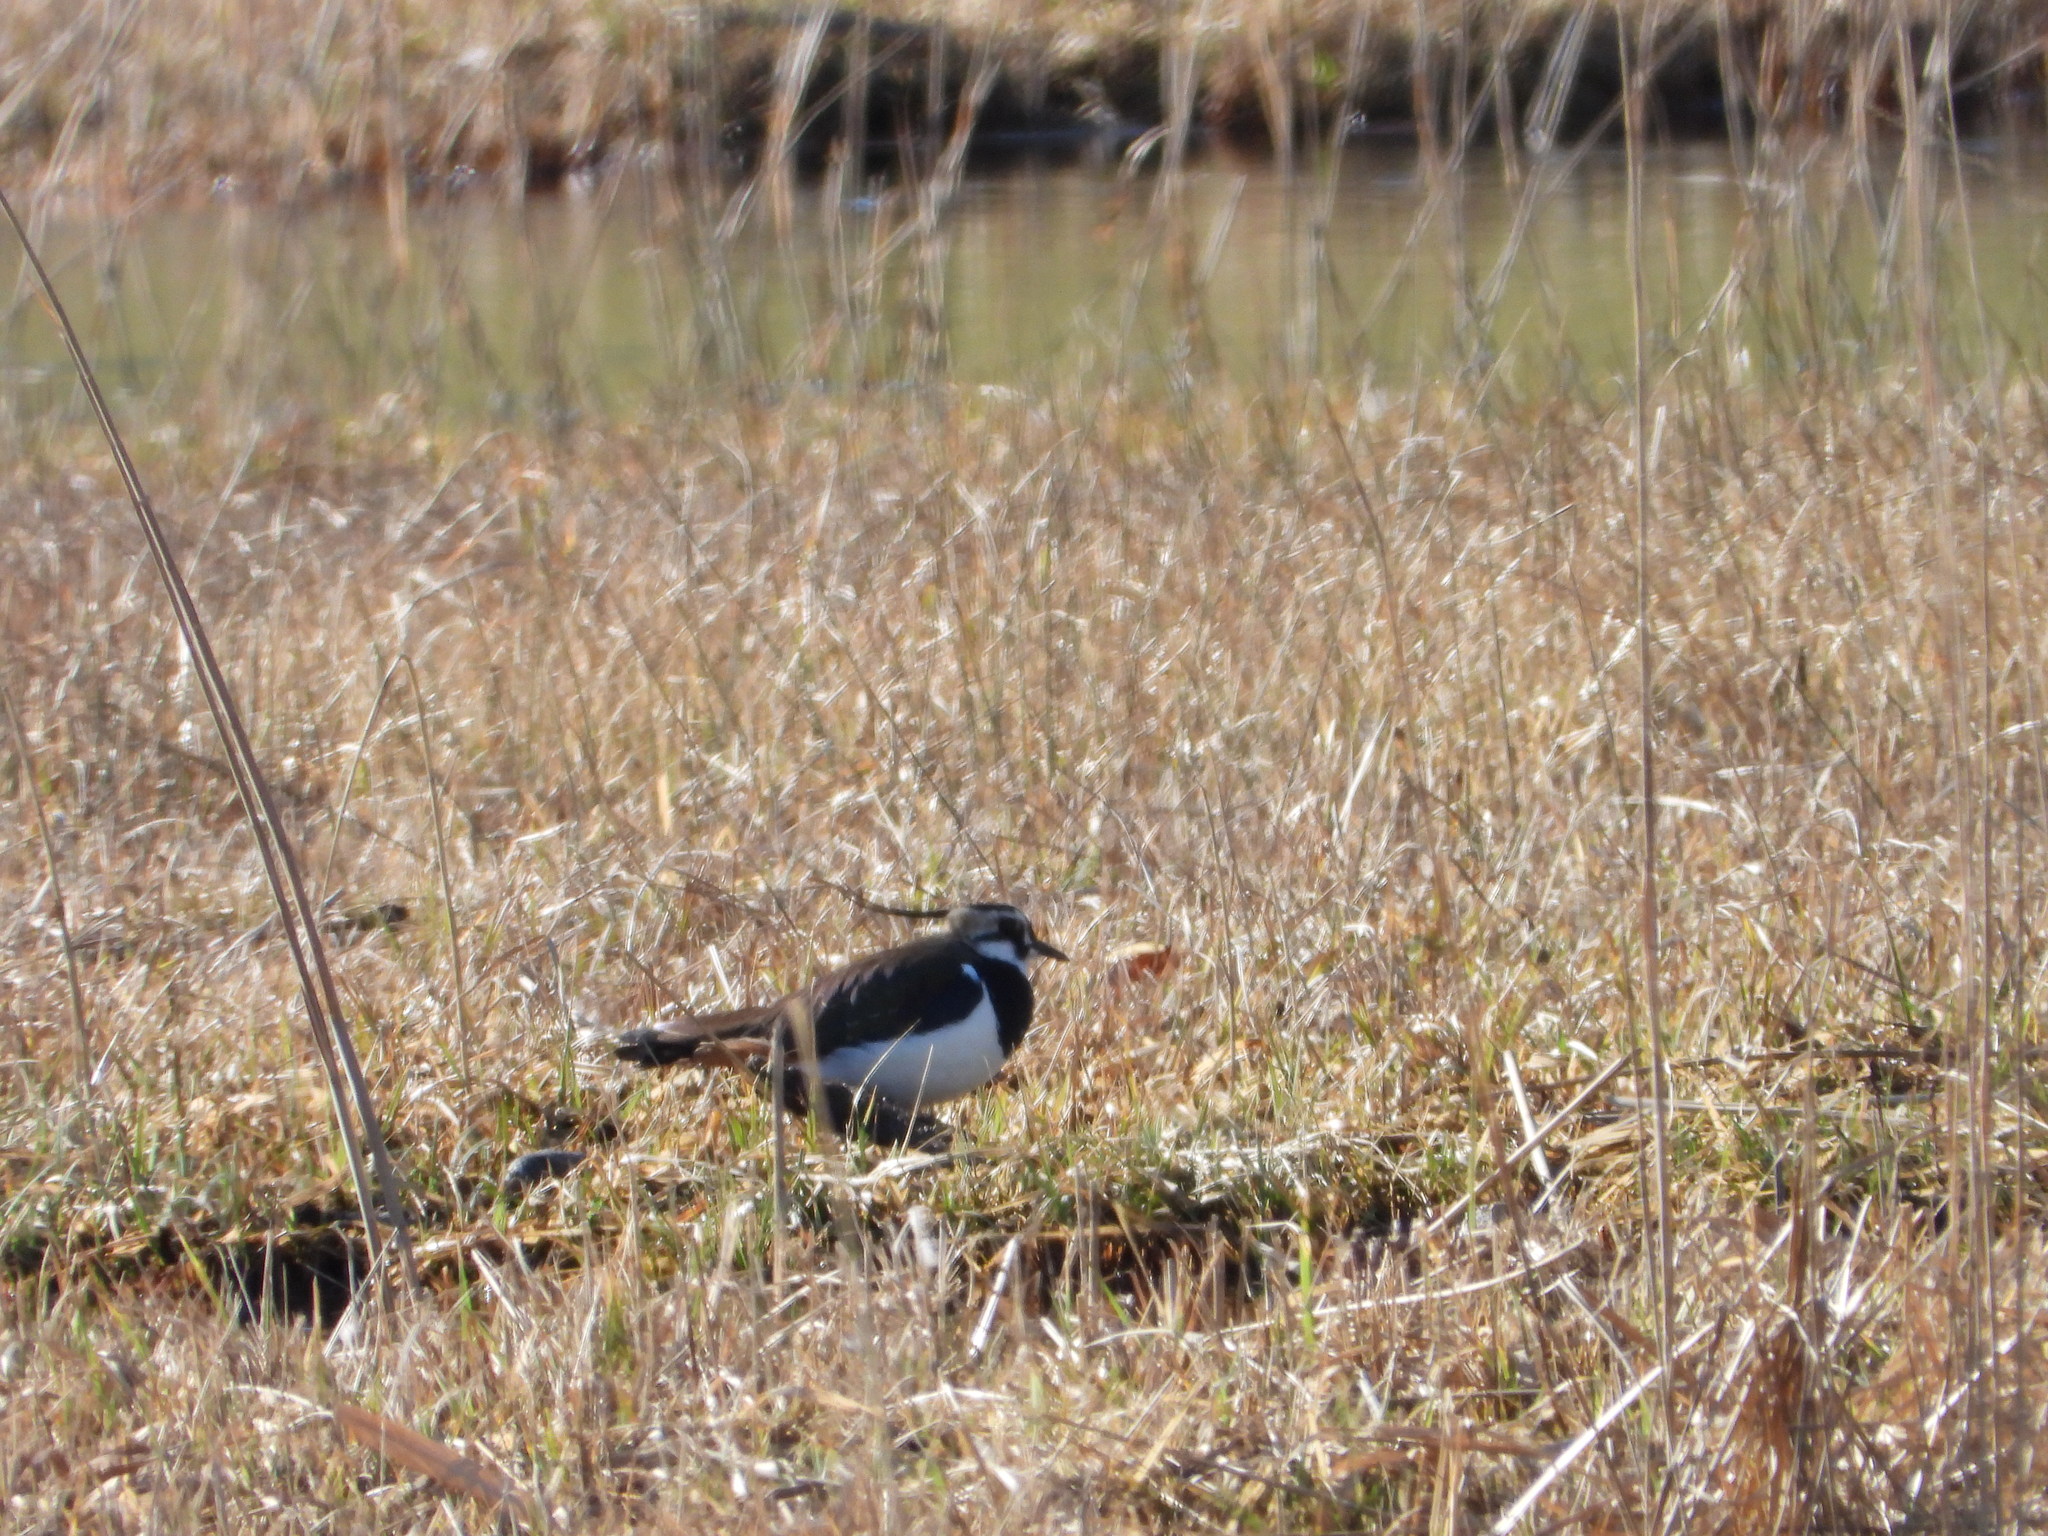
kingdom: Animalia
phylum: Chordata
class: Aves
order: Charadriiformes
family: Charadriidae
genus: Vanellus
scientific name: Vanellus vanellus
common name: Northern lapwing
